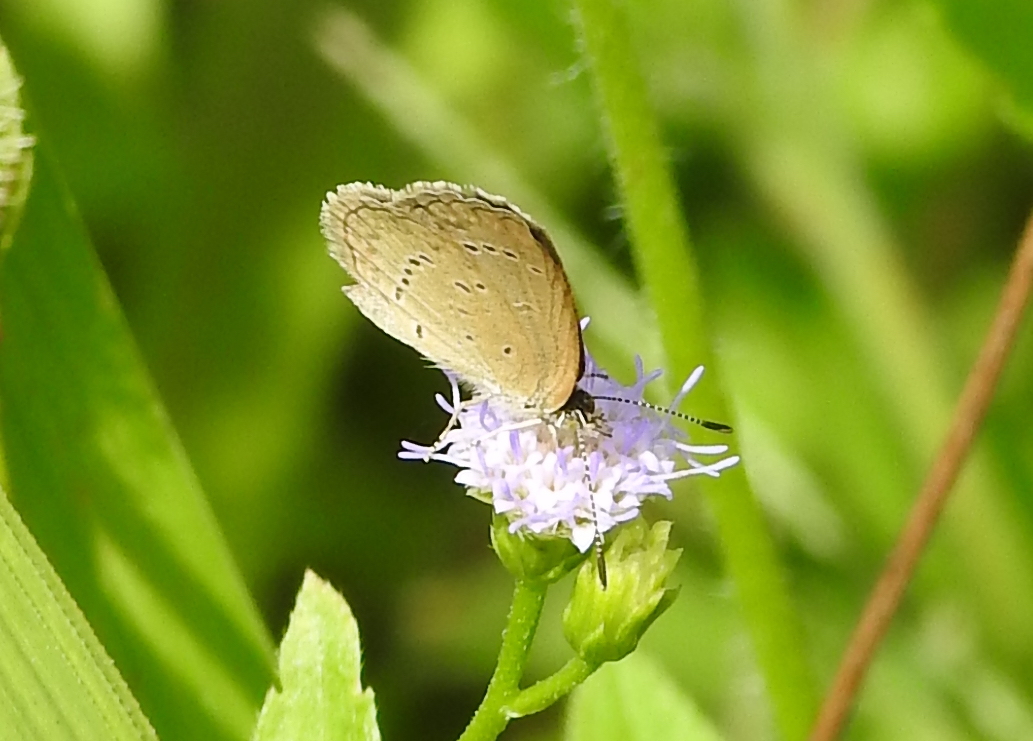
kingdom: Animalia
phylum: Arthropoda
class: Insecta
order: Lepidoptera
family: Lycaenidae
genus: Zizina
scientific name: Zizina otis
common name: Lesser grass blue
